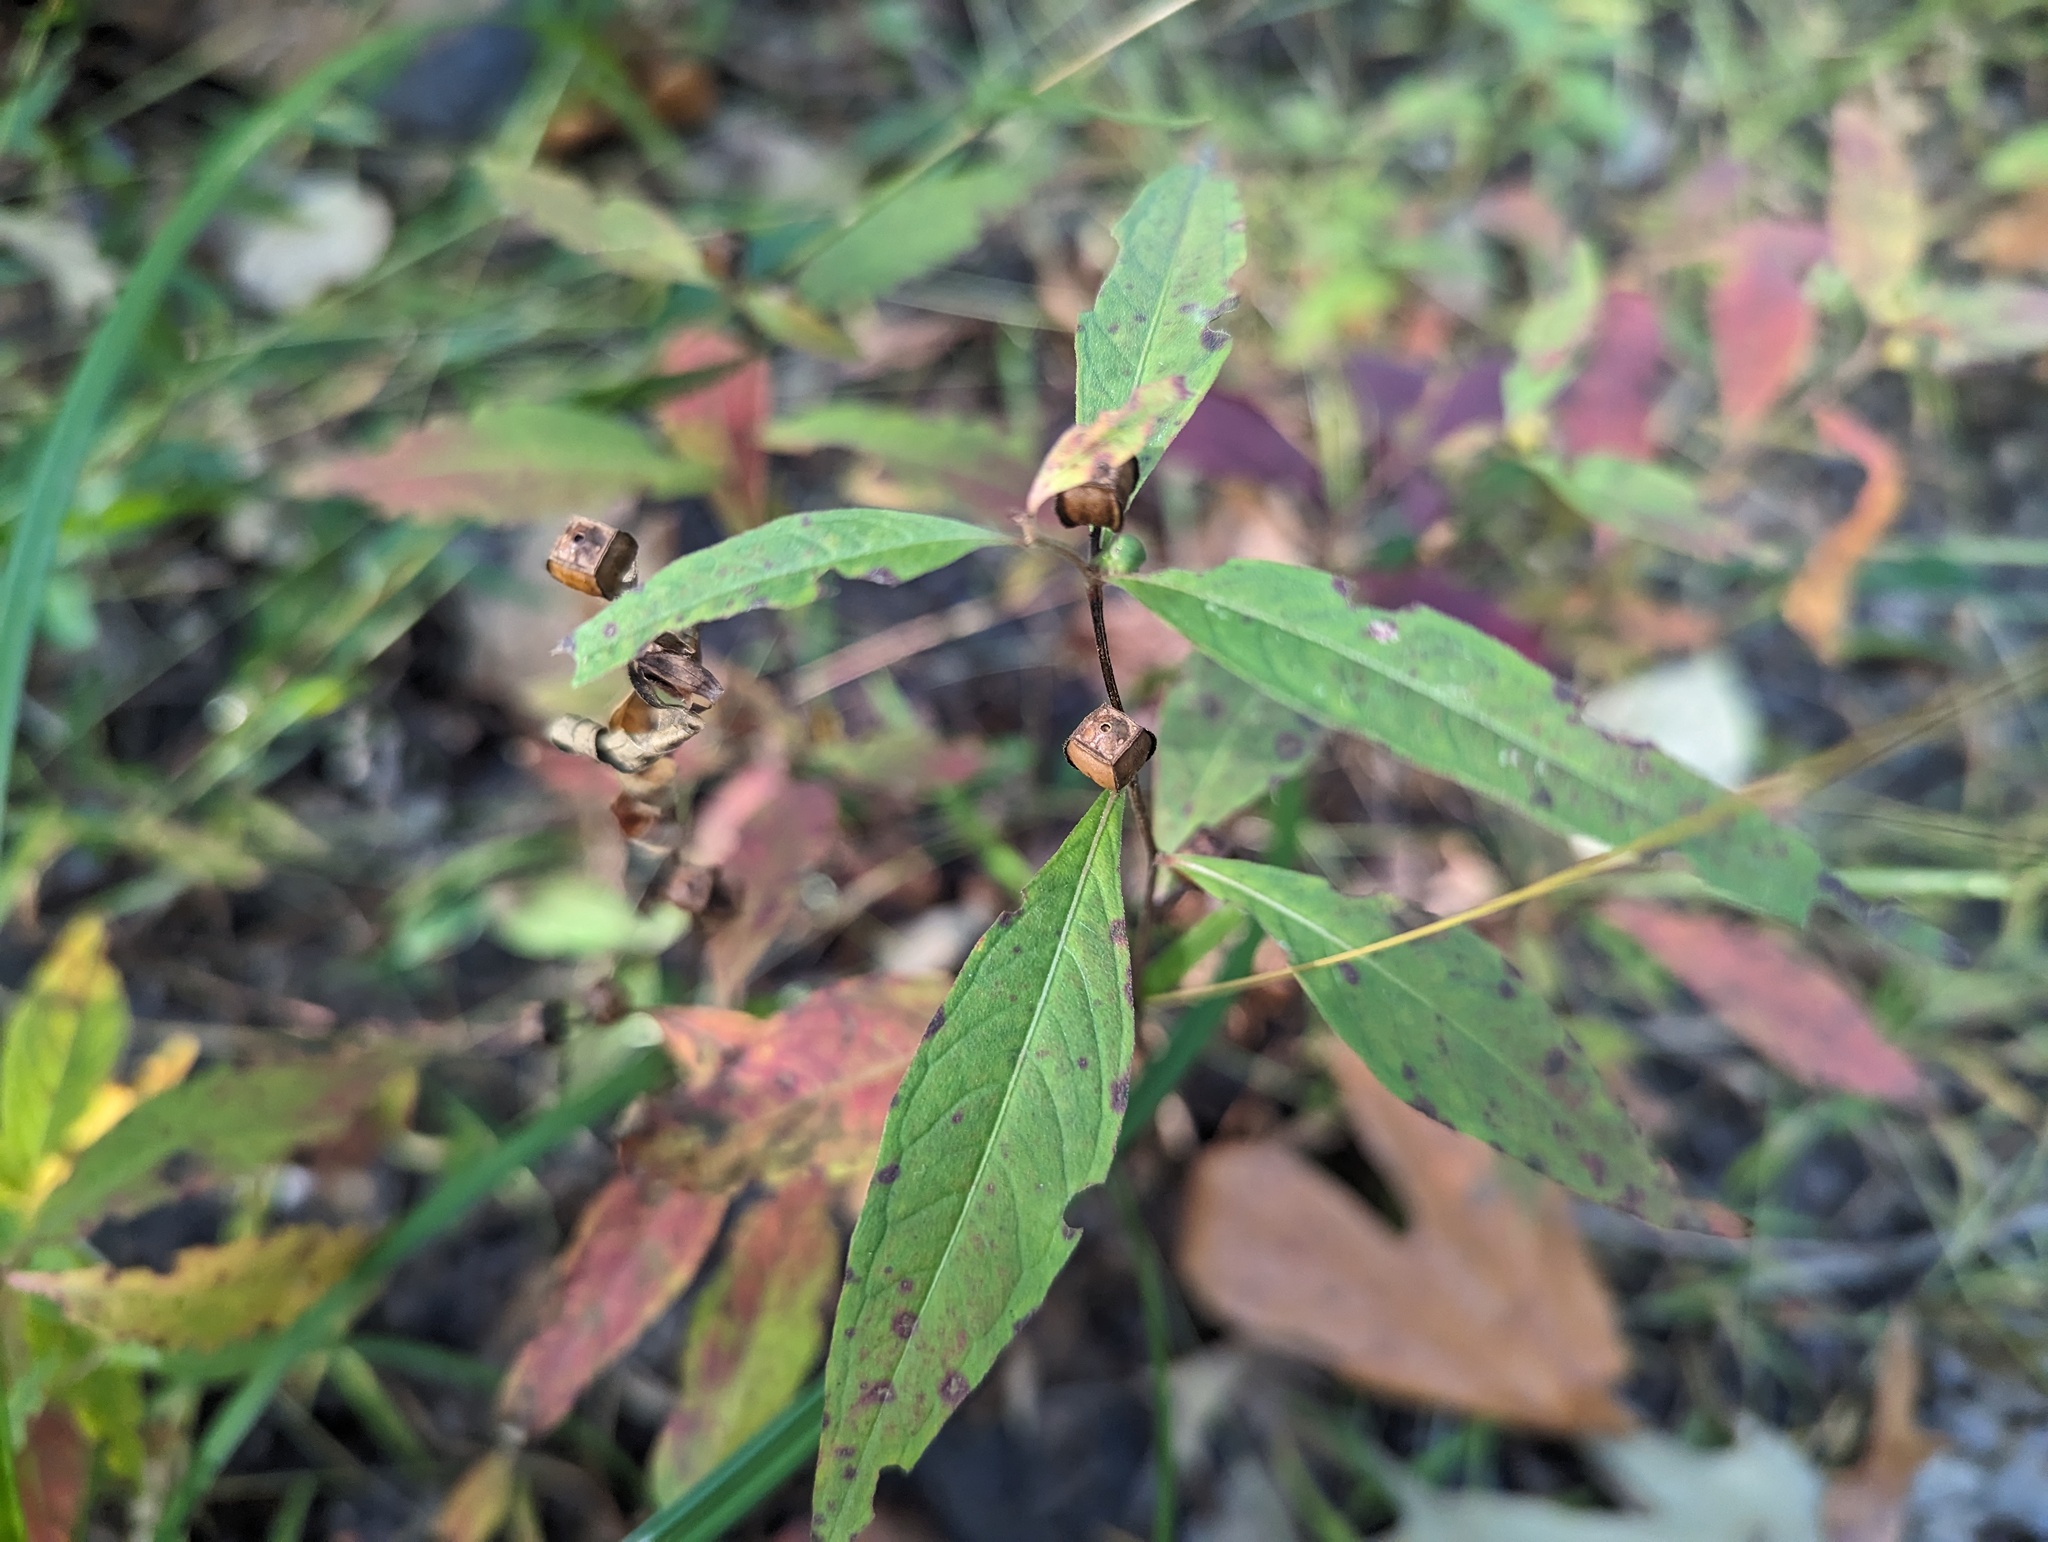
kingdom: Plantae
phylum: Tracheophyta
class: Magnoliopsida
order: Myrtales
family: Onagraceae
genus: Ludwigia
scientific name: Ludwigia alternifolia
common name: Rattlebox
